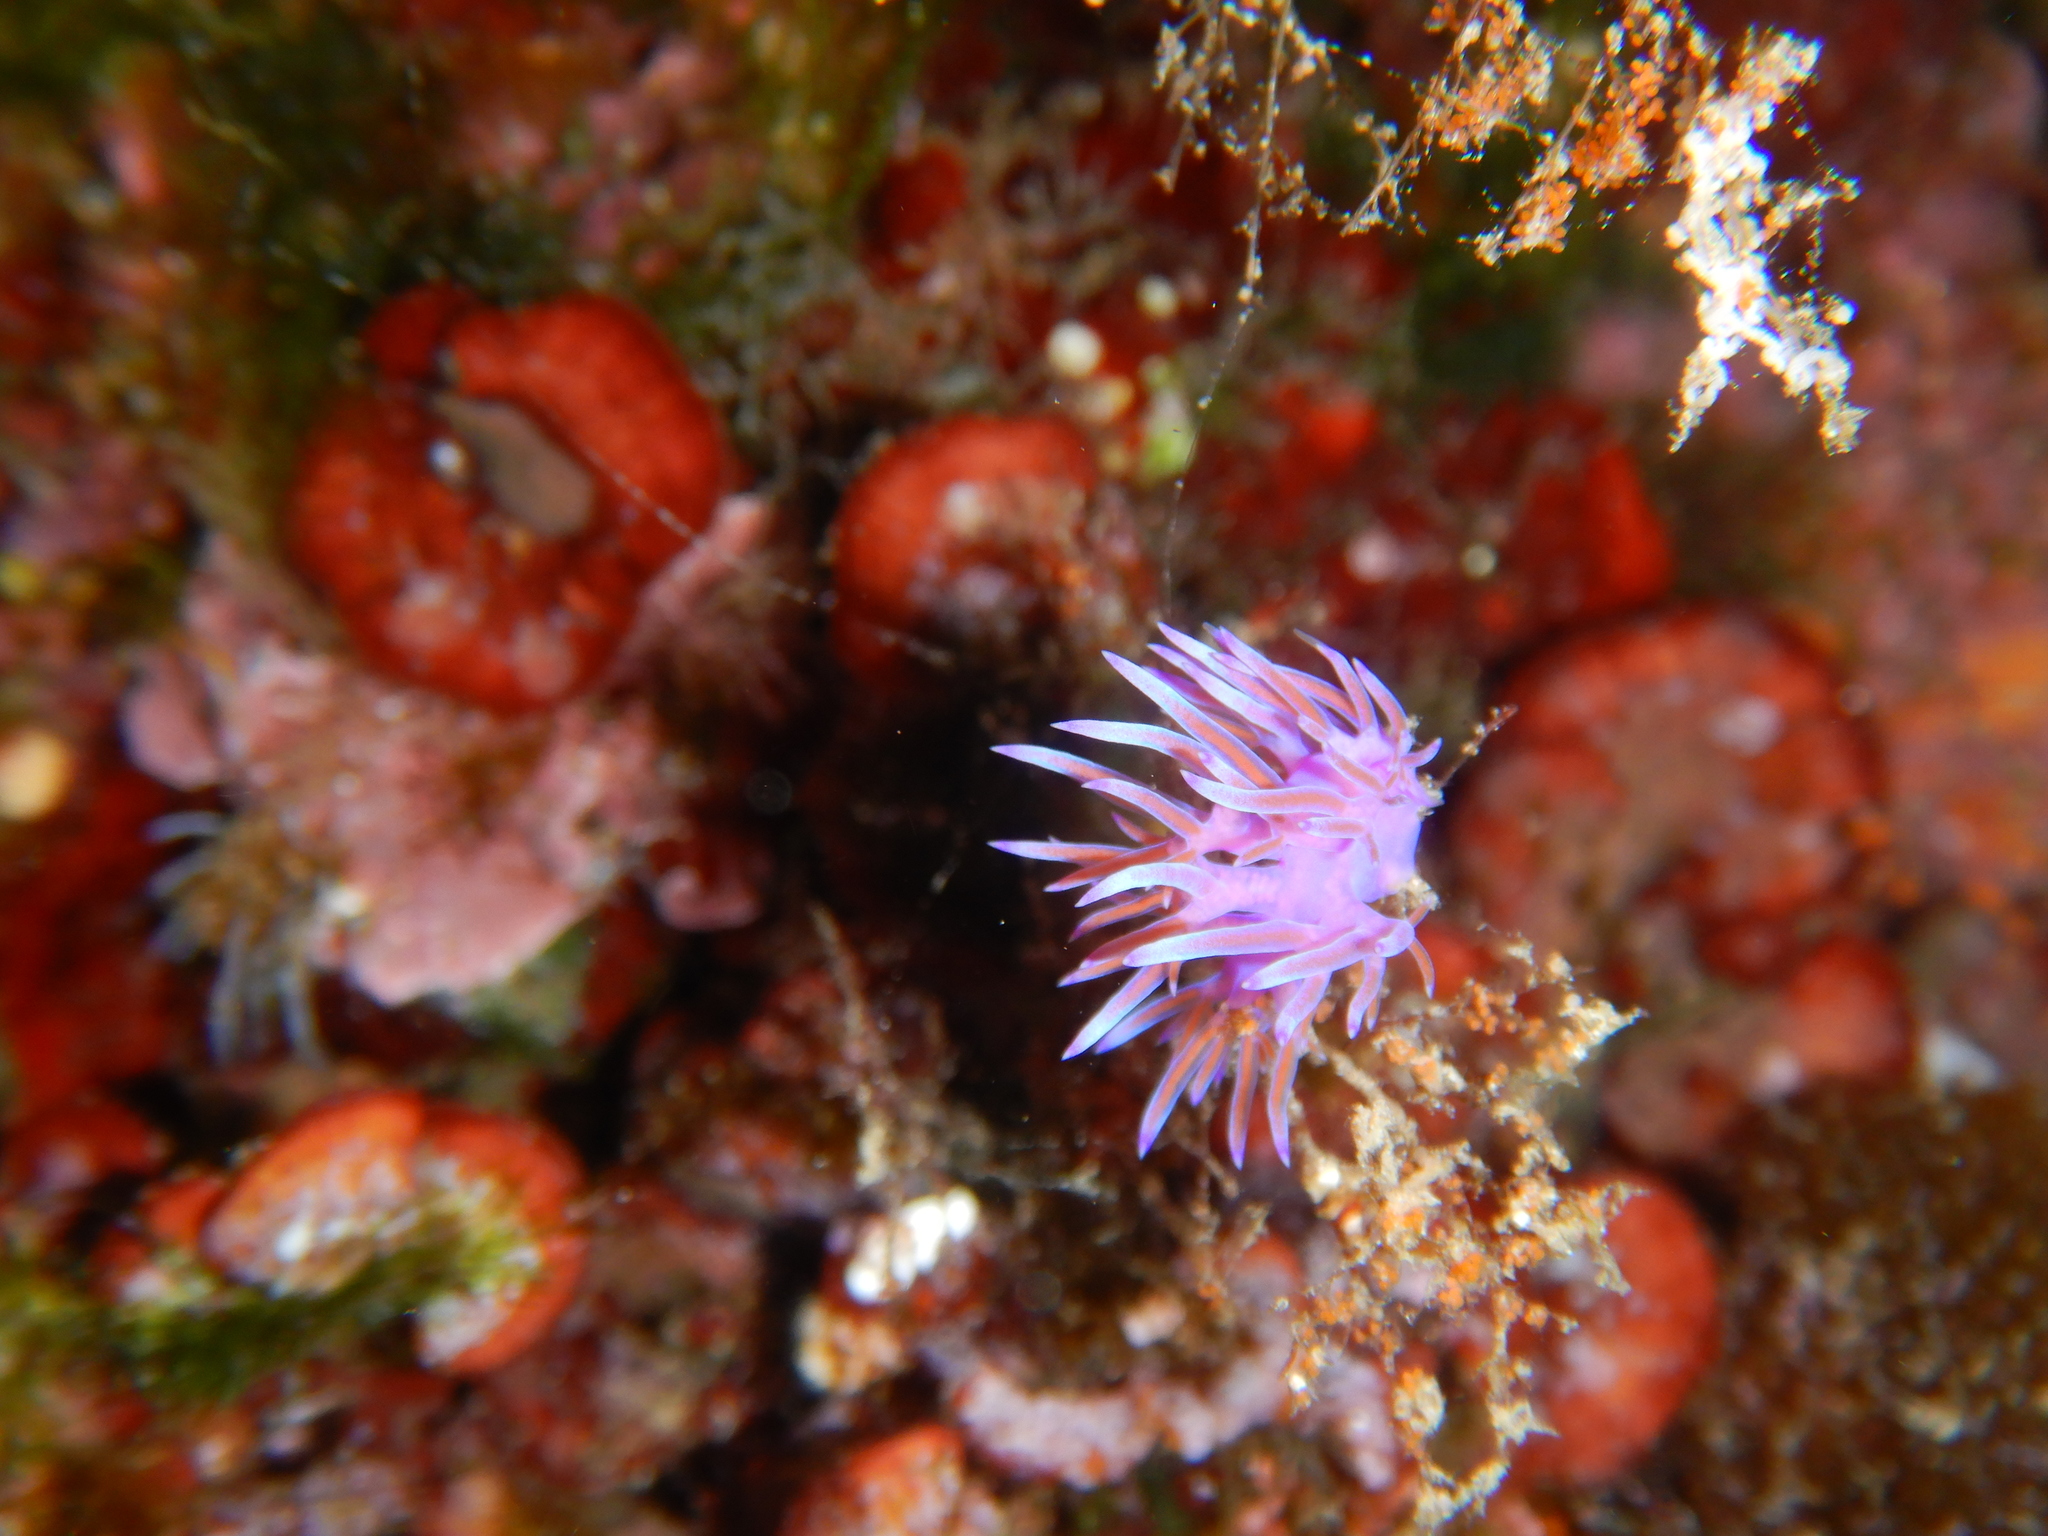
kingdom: Animalia
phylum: Mollusca
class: Gastropoda
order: Nudibranchia
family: Flabellinidae
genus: Flabellina
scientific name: Flabellina affinis
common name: Mediterranean violet aeolid
